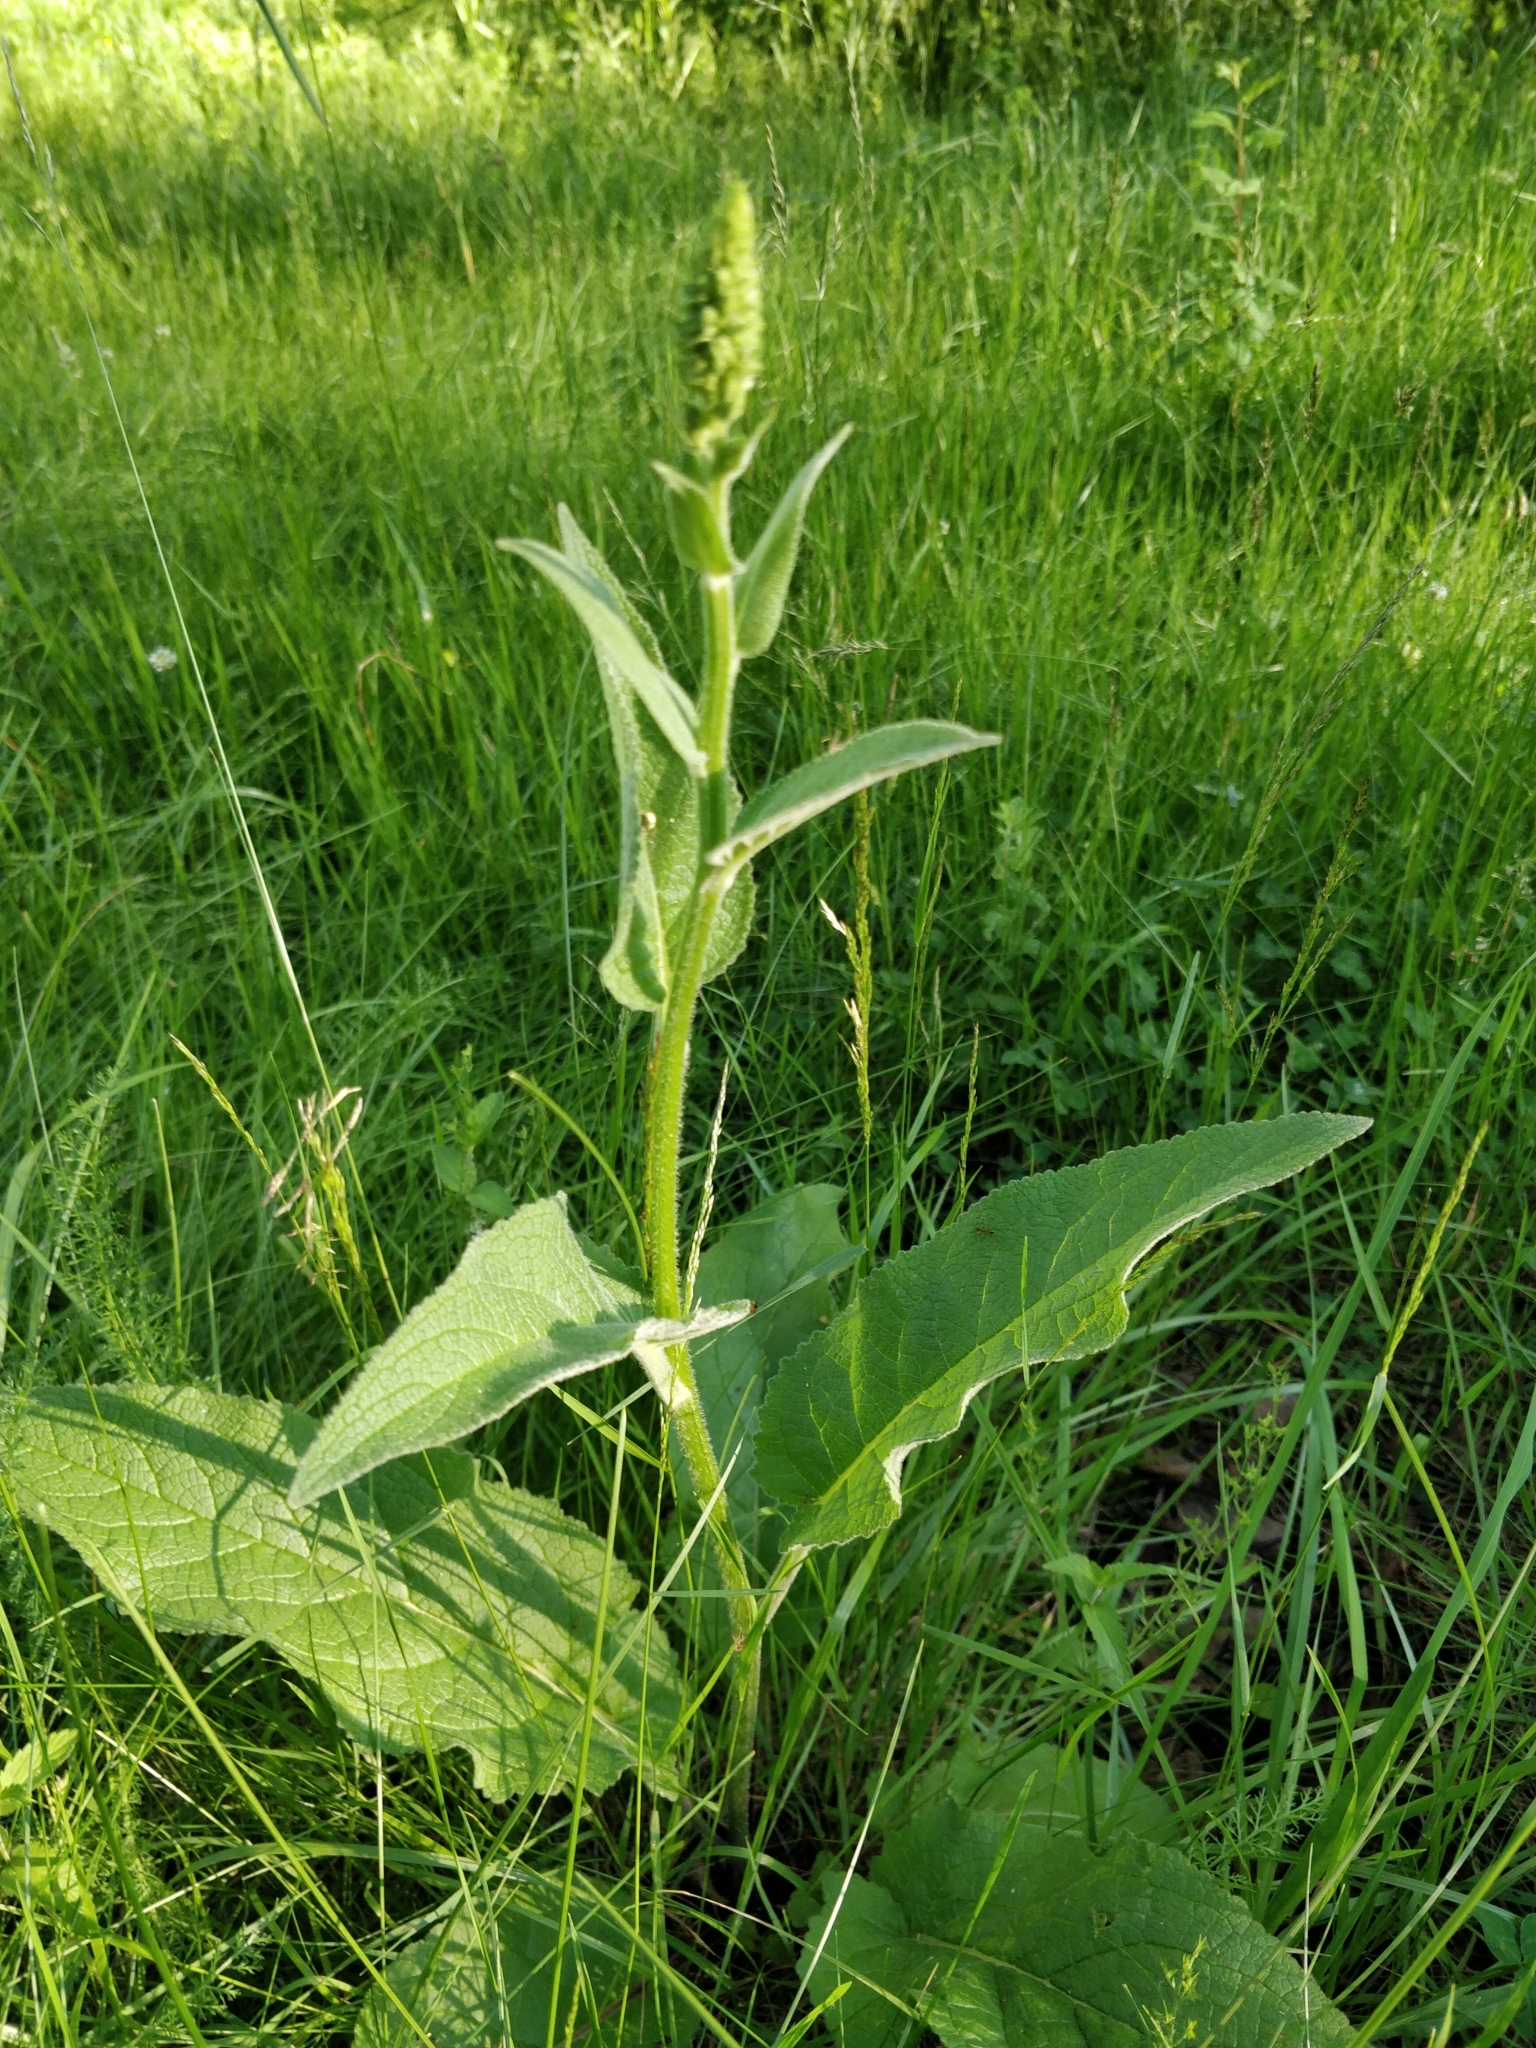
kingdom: Plantae
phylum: Tracheophyta
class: Magnoliopsida
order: Lamiales
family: Scrophulariaceae
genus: Verbascum
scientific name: Verbascum nigrum
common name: Dark mullein
